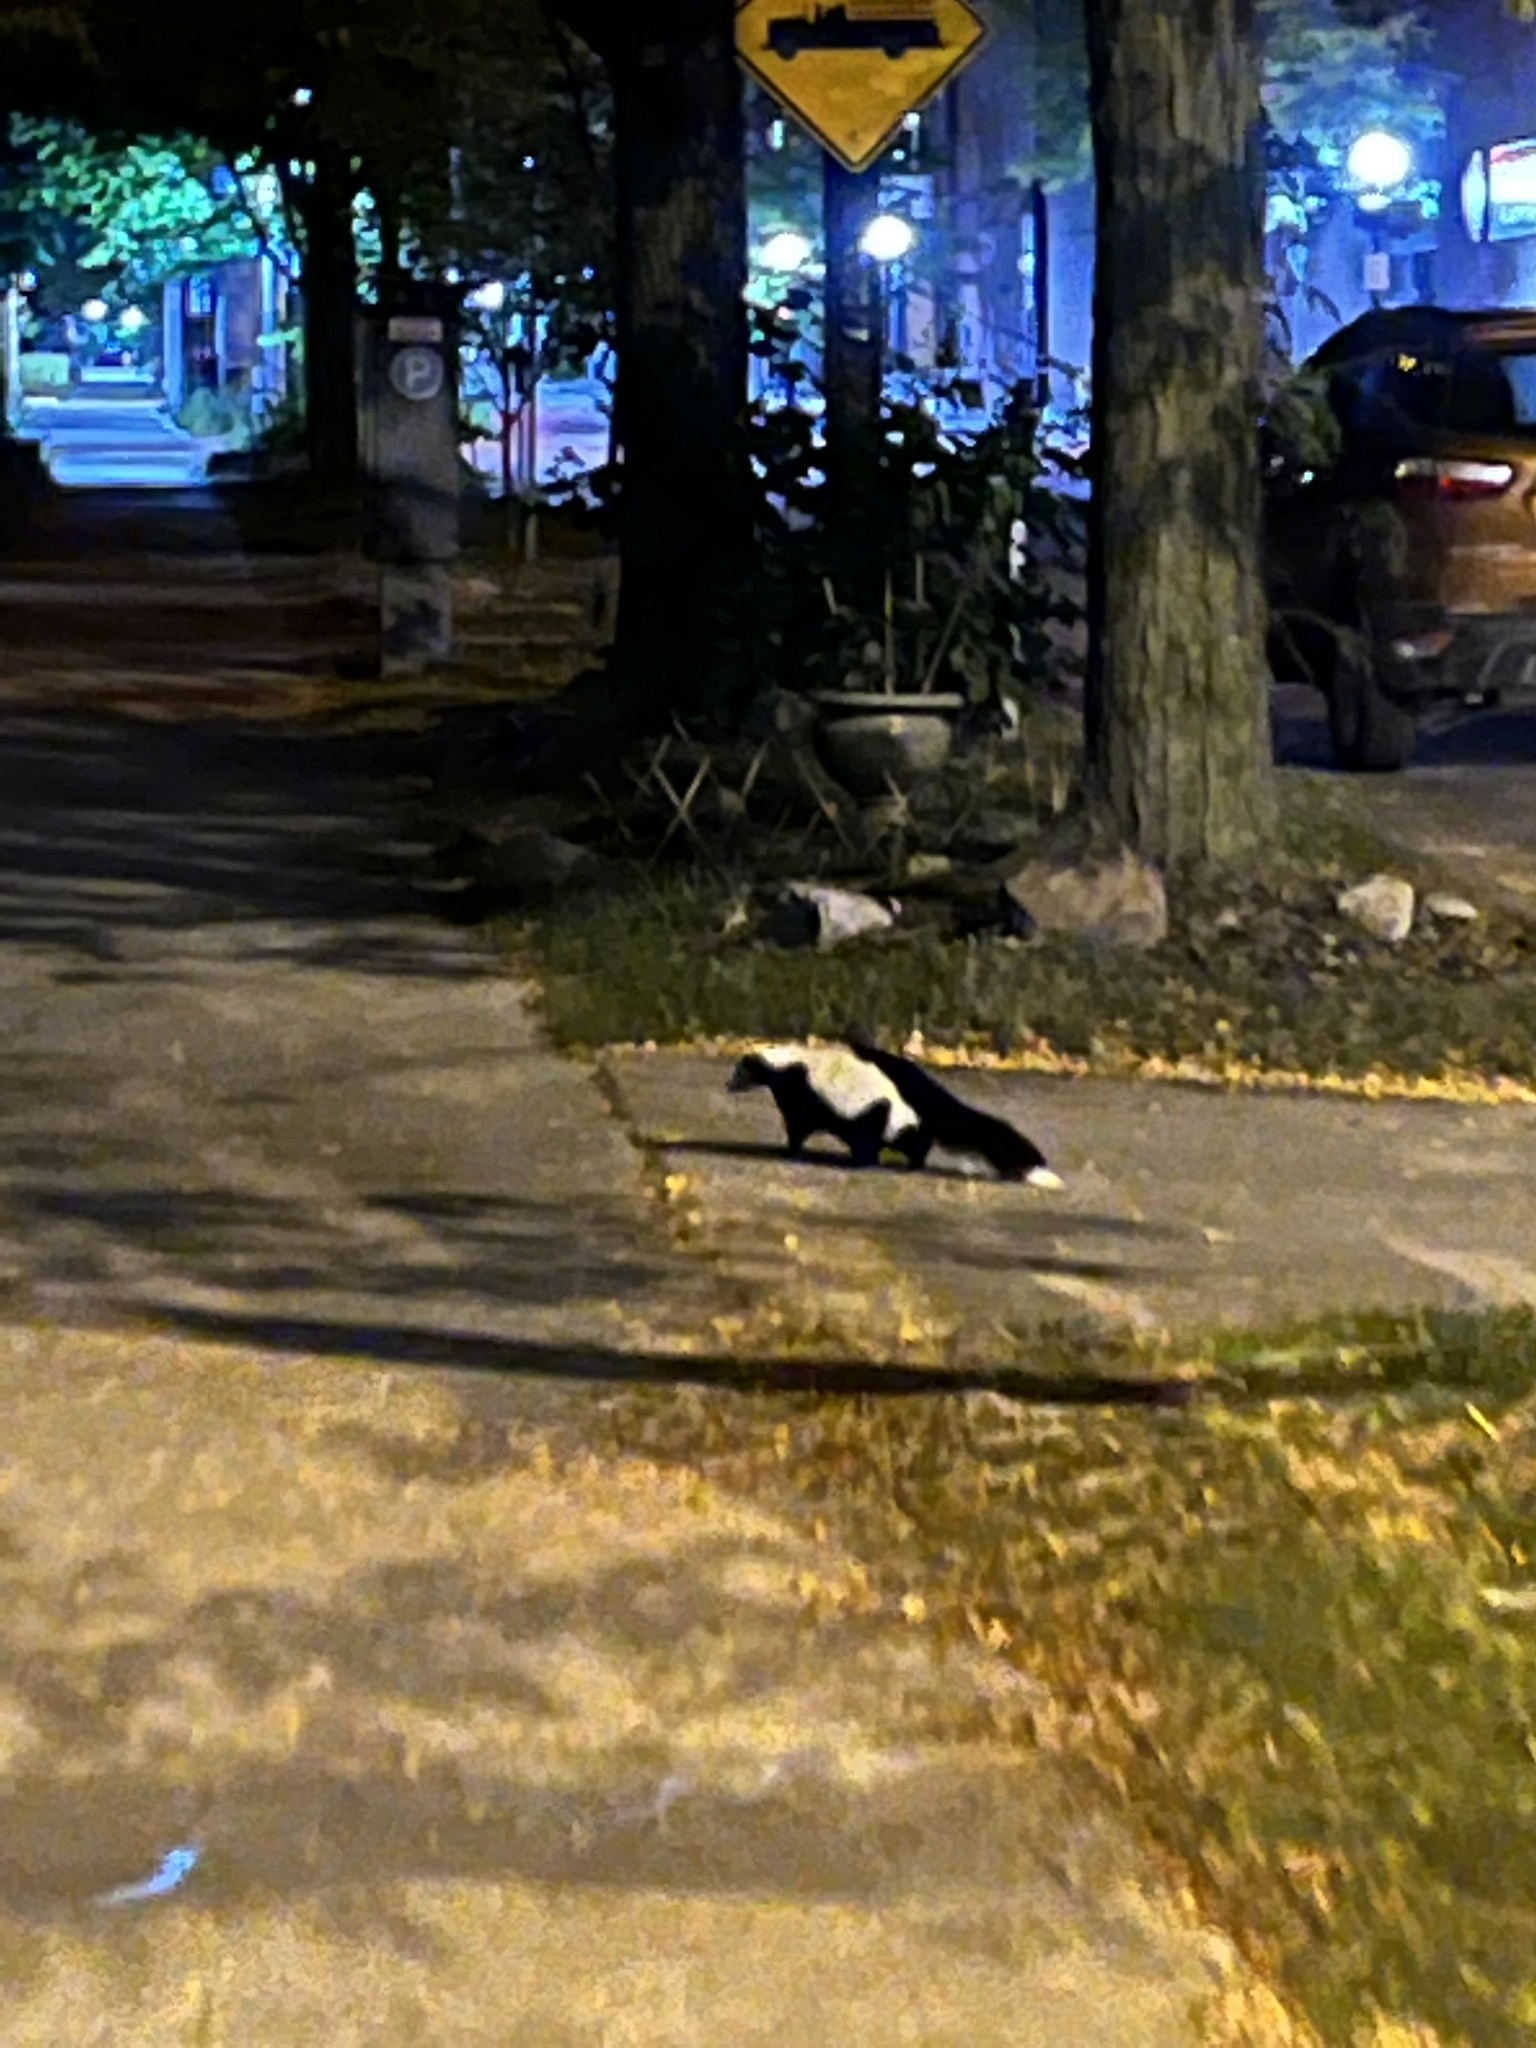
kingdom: Animalia
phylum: Chordata
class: Mammalia
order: Carnivora
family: Mephitidae
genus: Mephitis
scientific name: Mephitis mephitis
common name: Striped skunk
